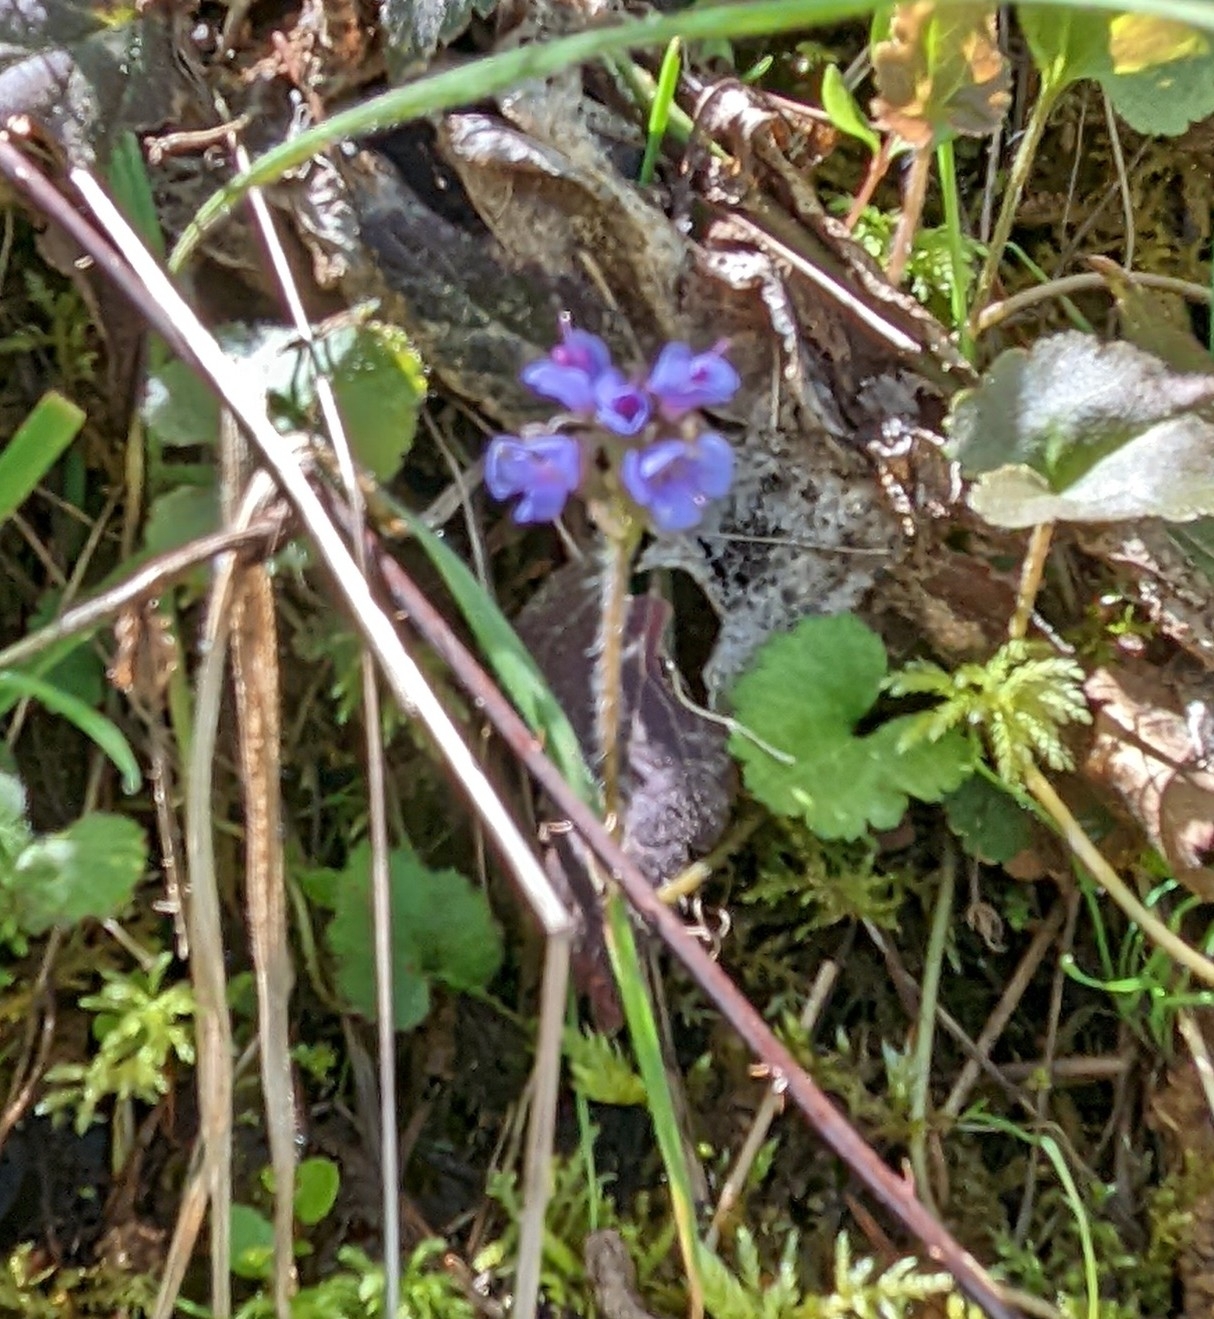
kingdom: Plantae
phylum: Tracheophyta
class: Magnoliopsida
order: Lamiales
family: Plantaginaceae
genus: Synthyris
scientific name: Synthyris reniformis
